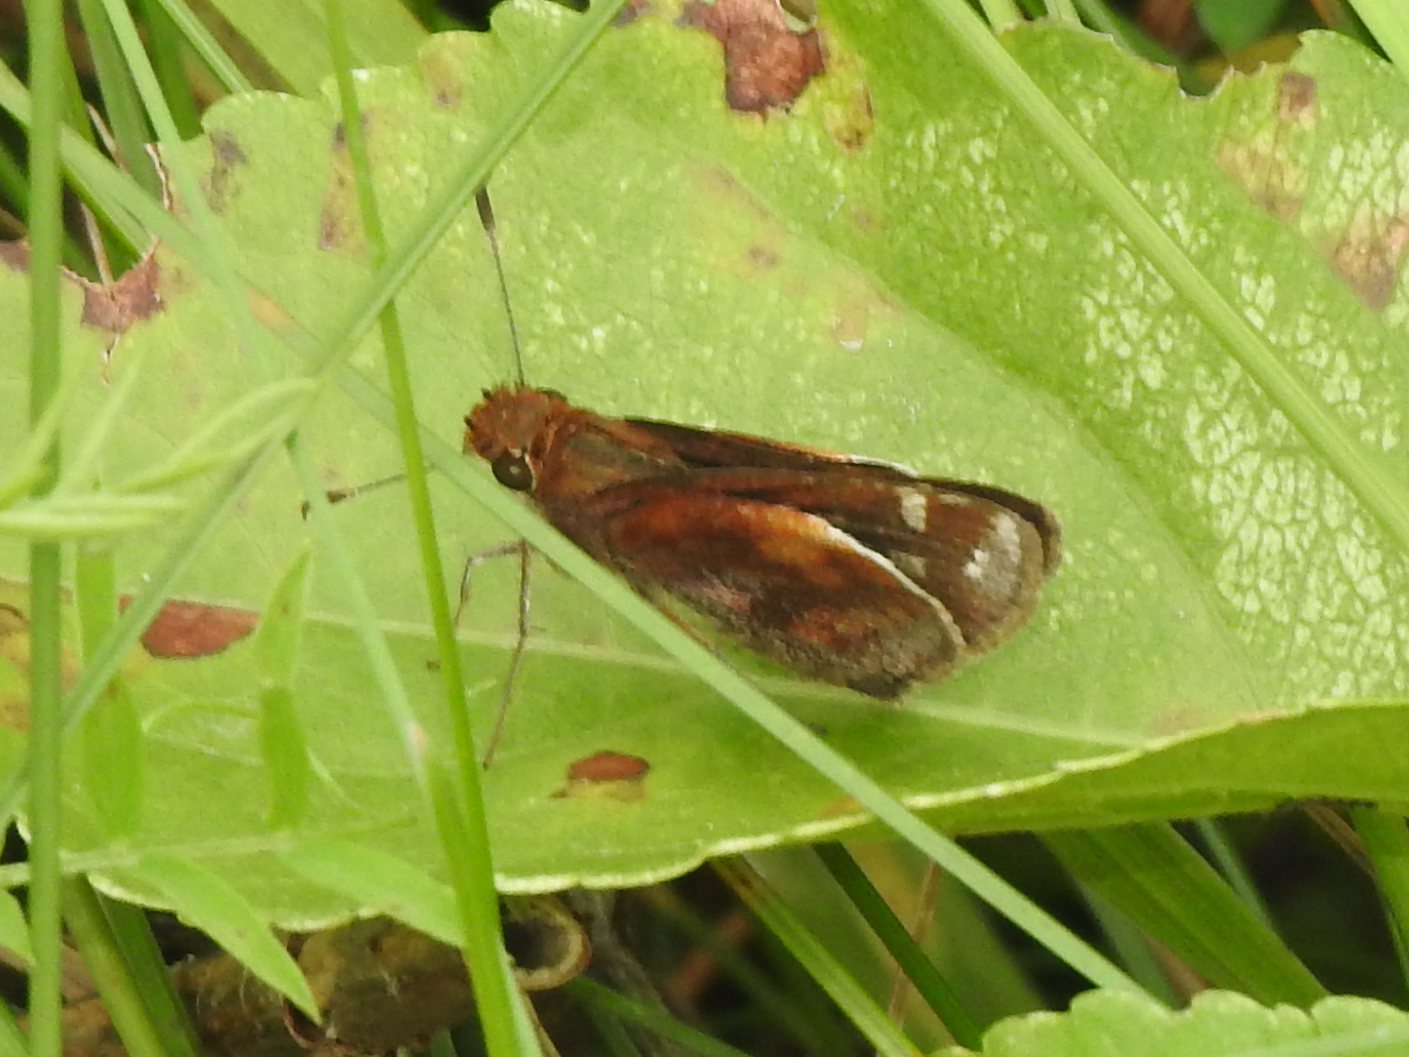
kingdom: Animalia
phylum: Arthropoda
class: Insecta
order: Lepidoptera
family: Hesperiidae
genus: Lon
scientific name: Lon zabulon
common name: Zabulon skipper
